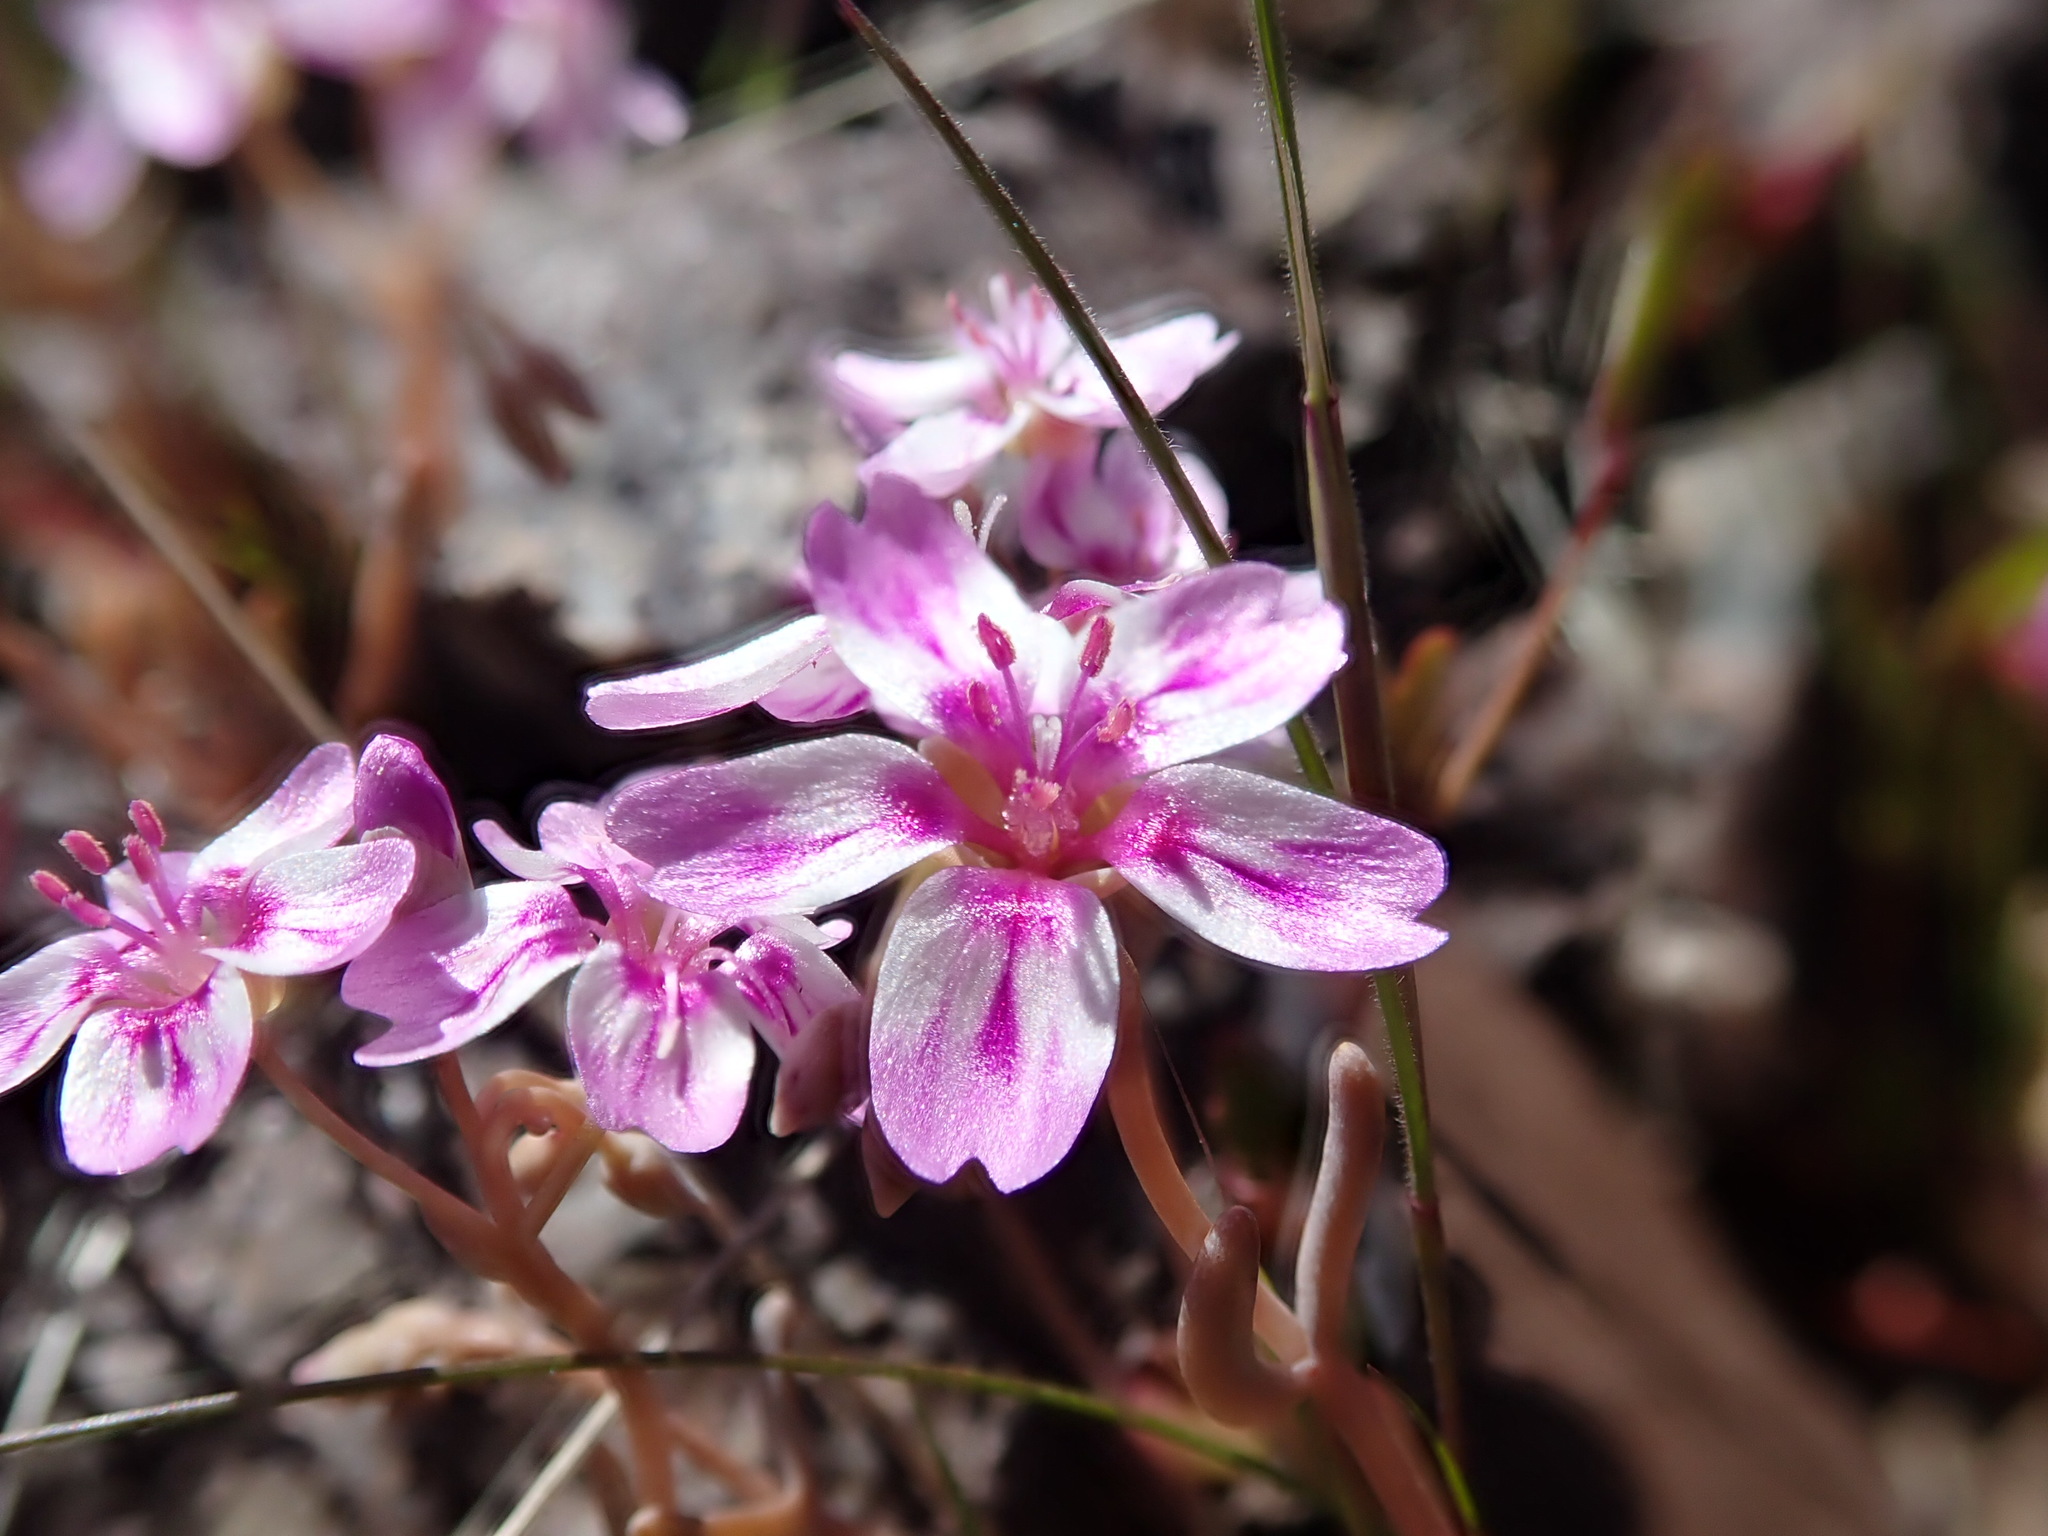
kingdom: Plantae
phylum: Tracheophyta
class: Magnoliopsida
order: Caryophyllales
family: Montiaceae
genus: Claytonia
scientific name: Claytonia gypsophiloides
